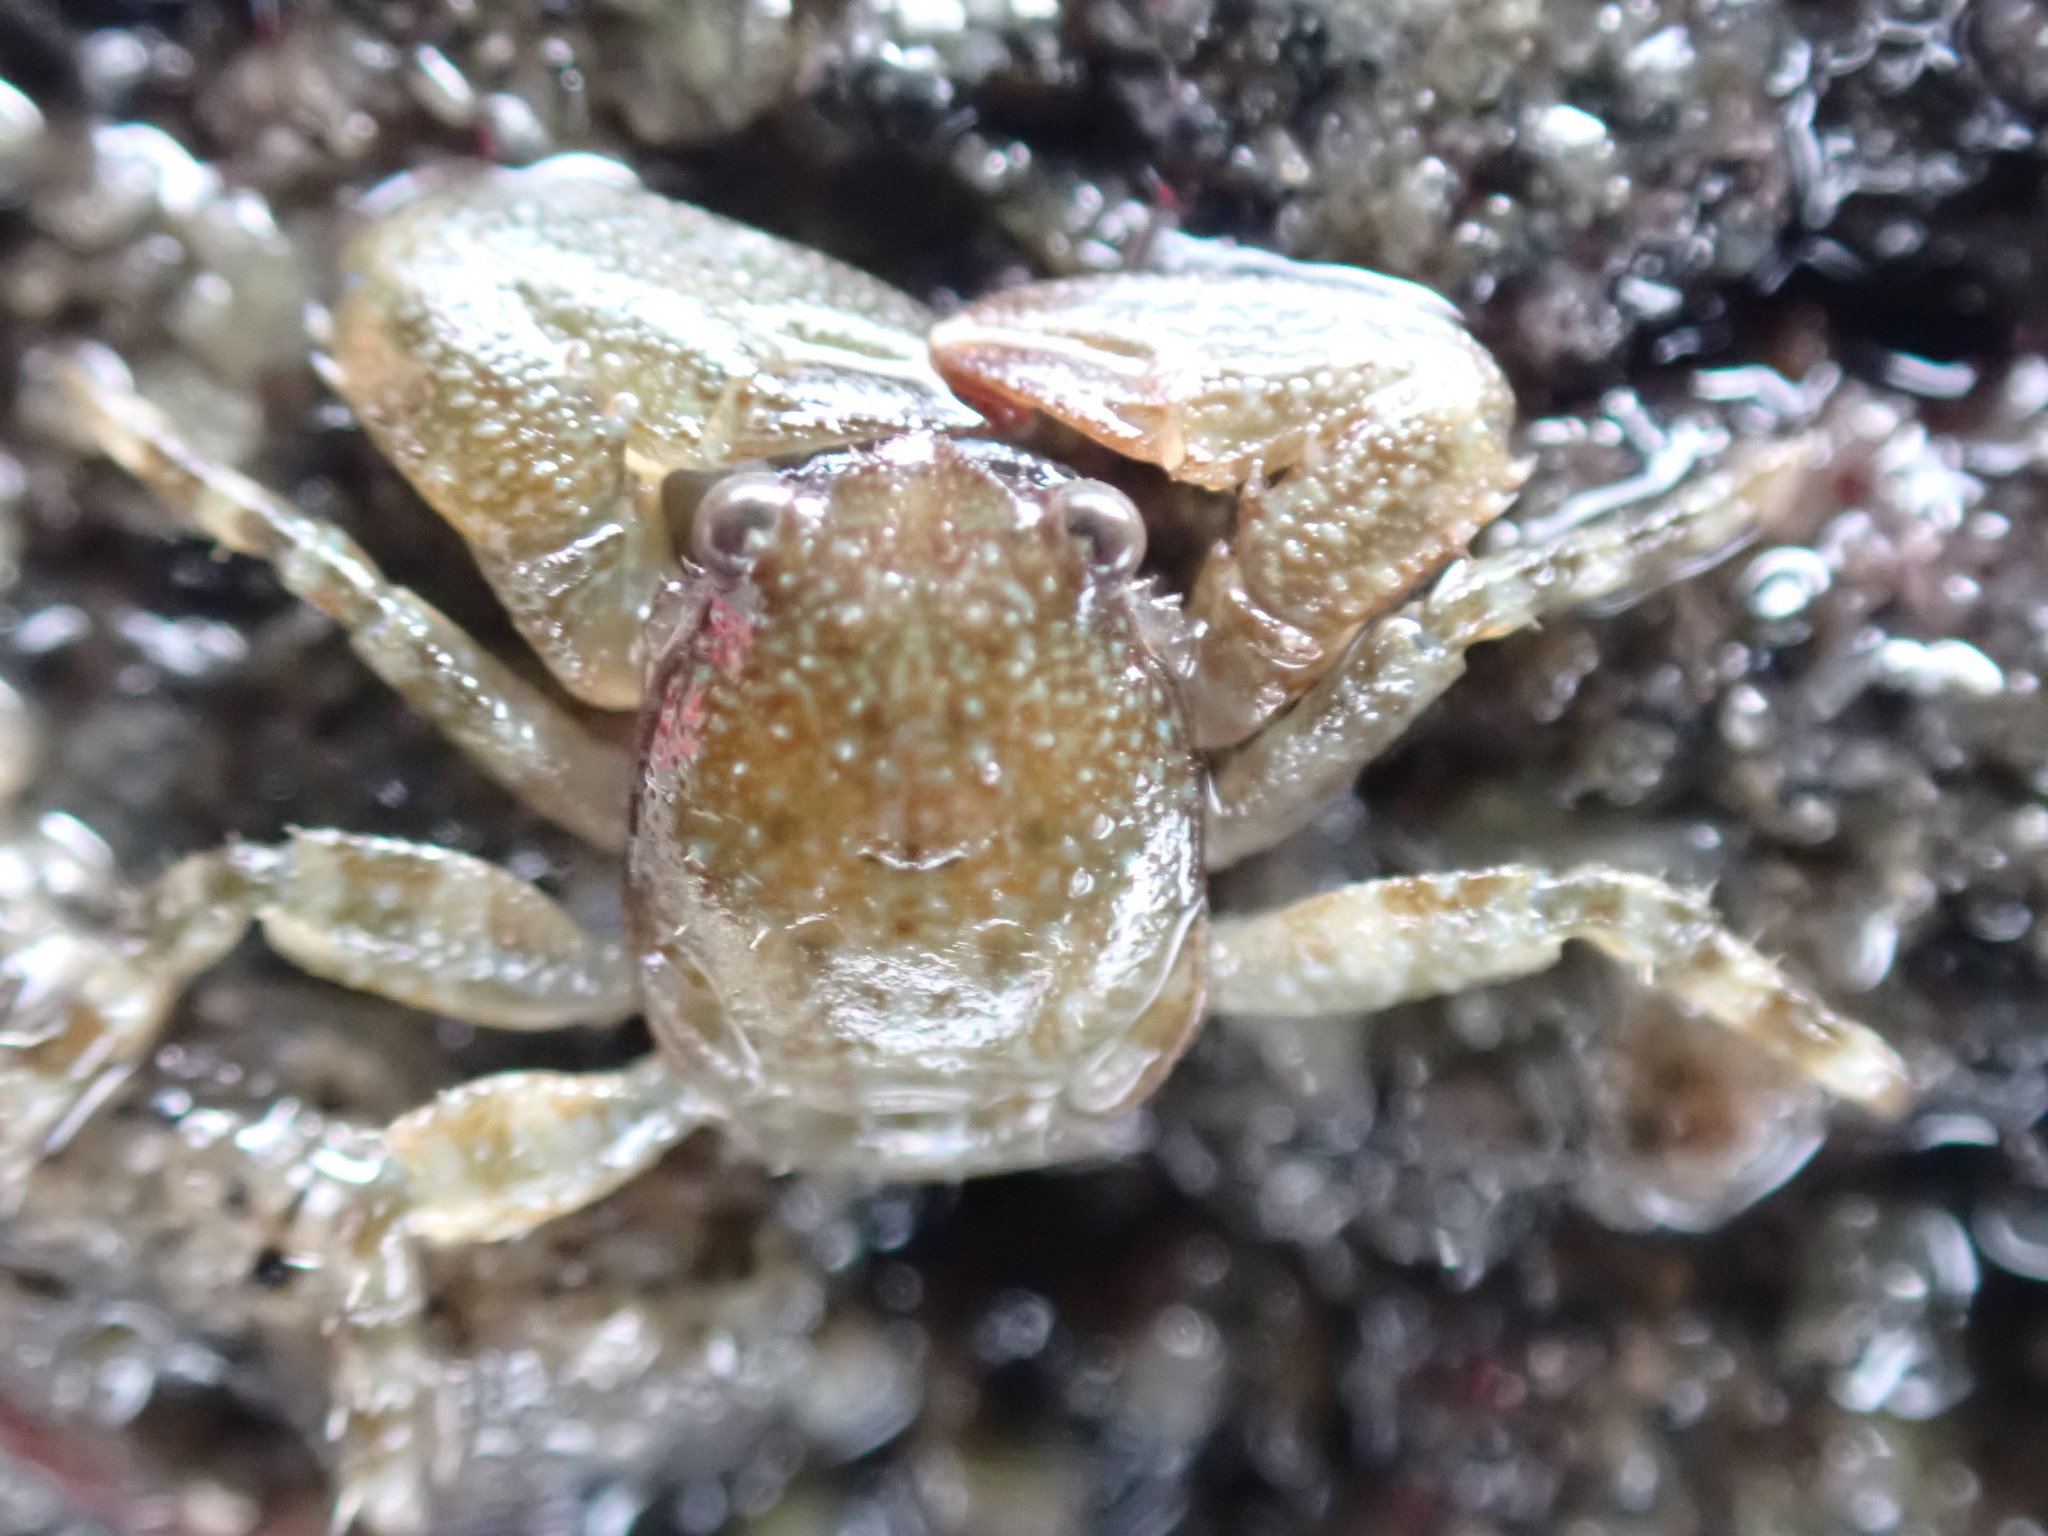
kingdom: Animalia
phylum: Arthropoda
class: Malacostraca
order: Decapoda
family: Porcellanidae
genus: Petrocheles
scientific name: Petrocheles spinosus
